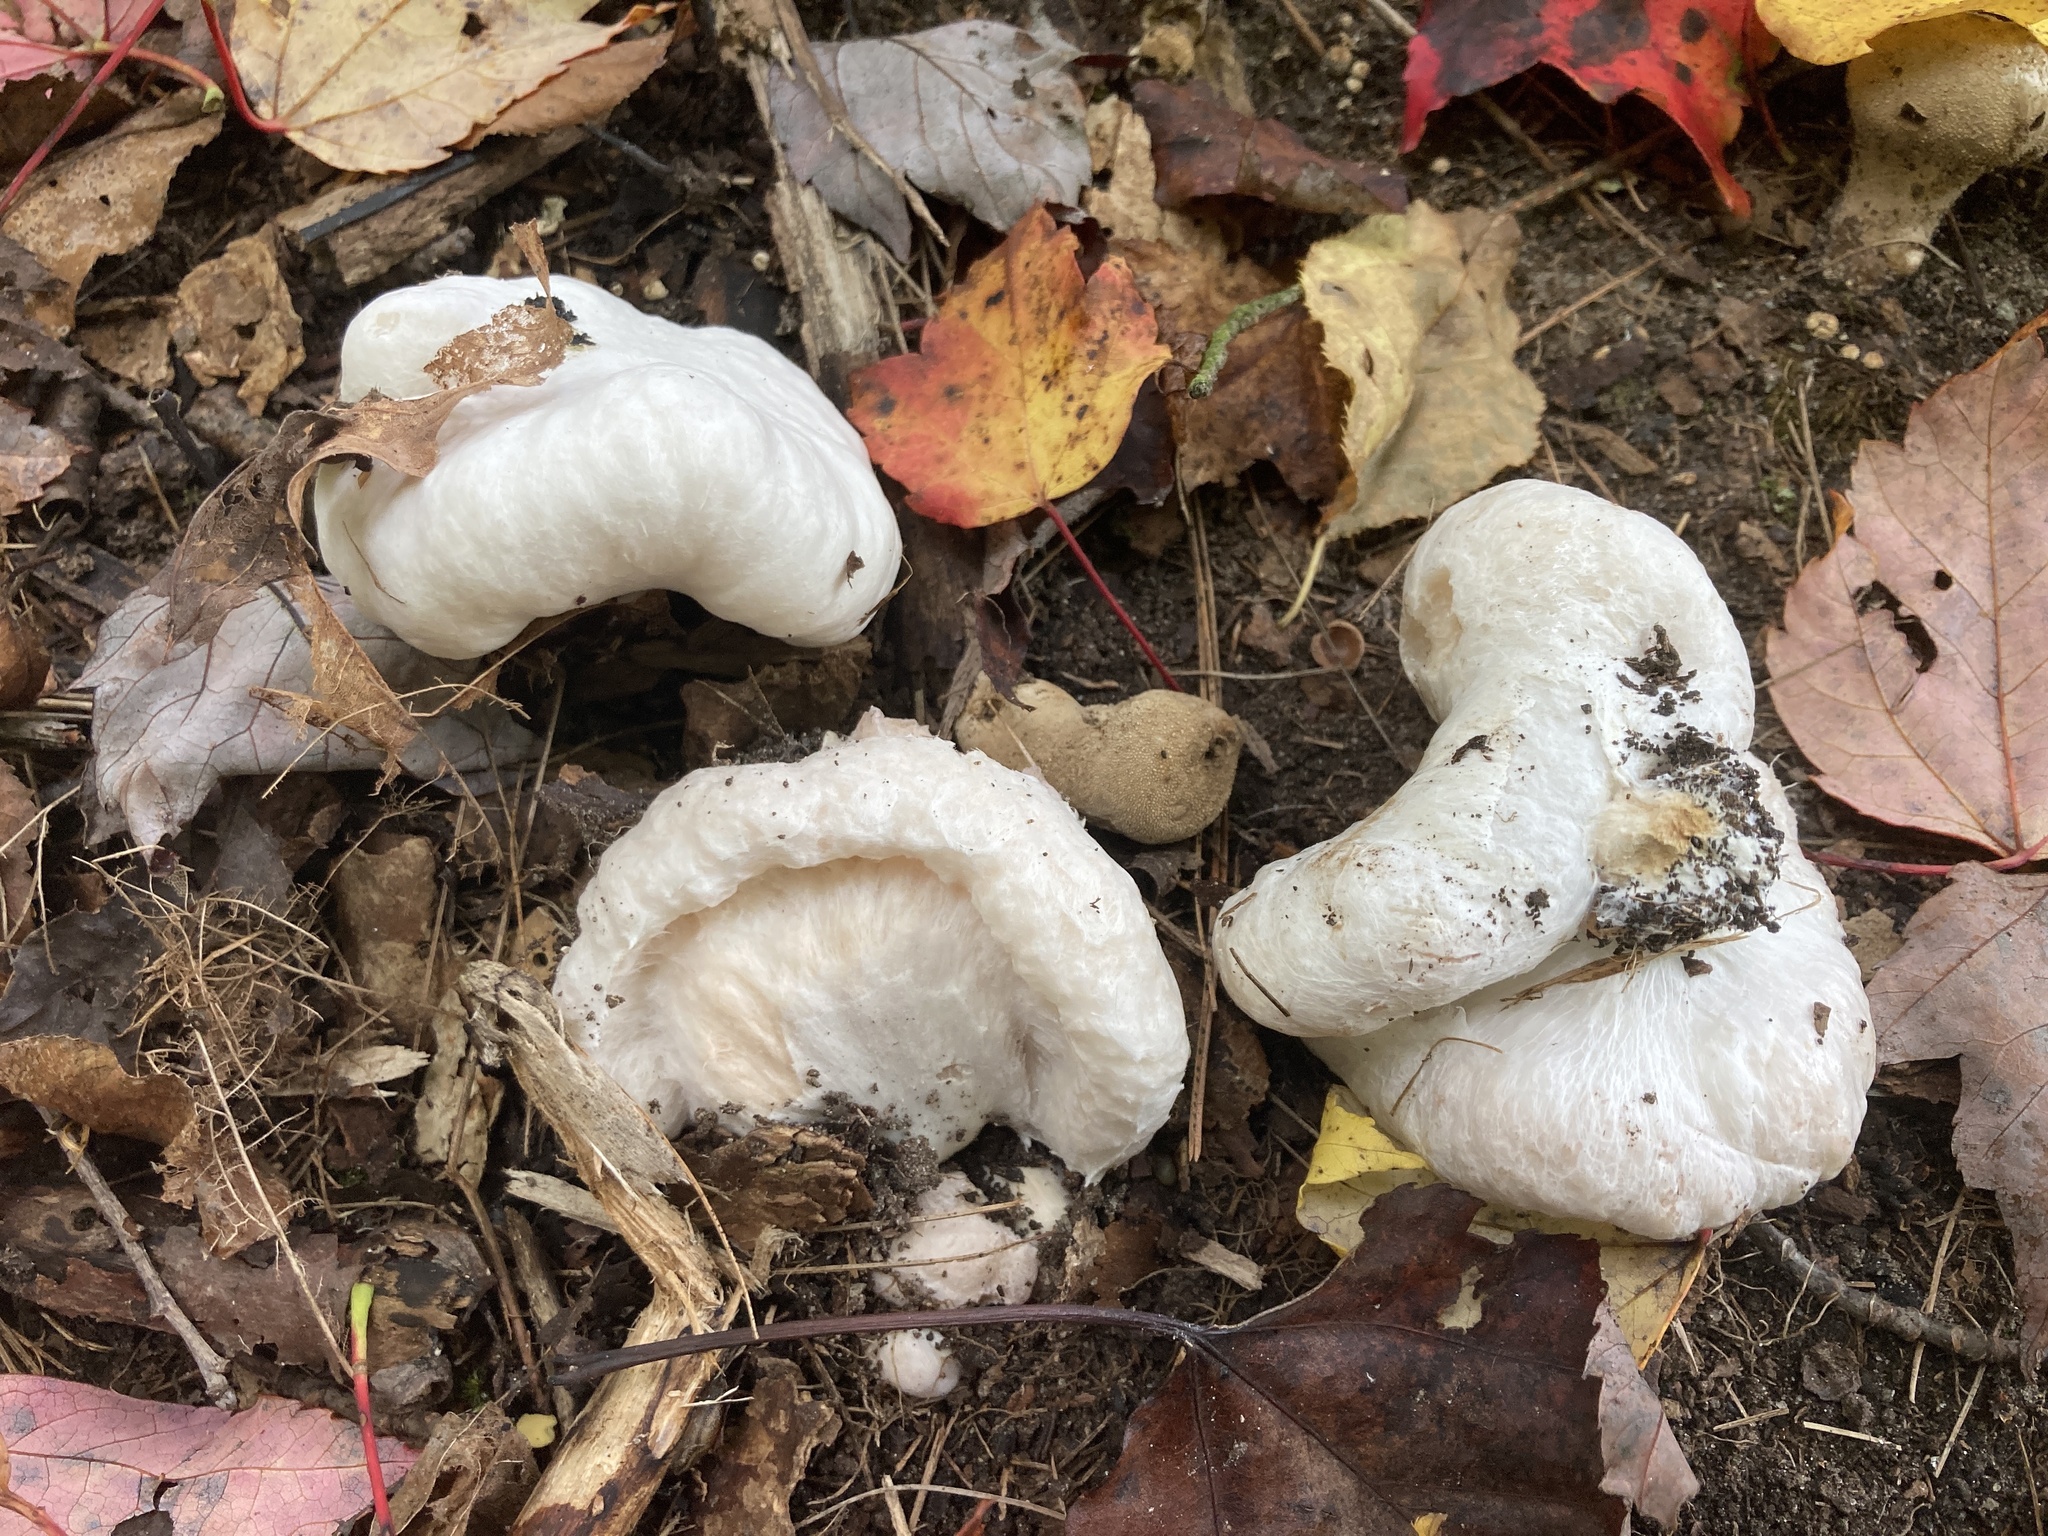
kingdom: Fungi
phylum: Basidiomycota
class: Agaricomycetes
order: Agaricales
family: Entolomataceae
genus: Entoloma
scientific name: Entoloma abortivum
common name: Aborted entoloma
